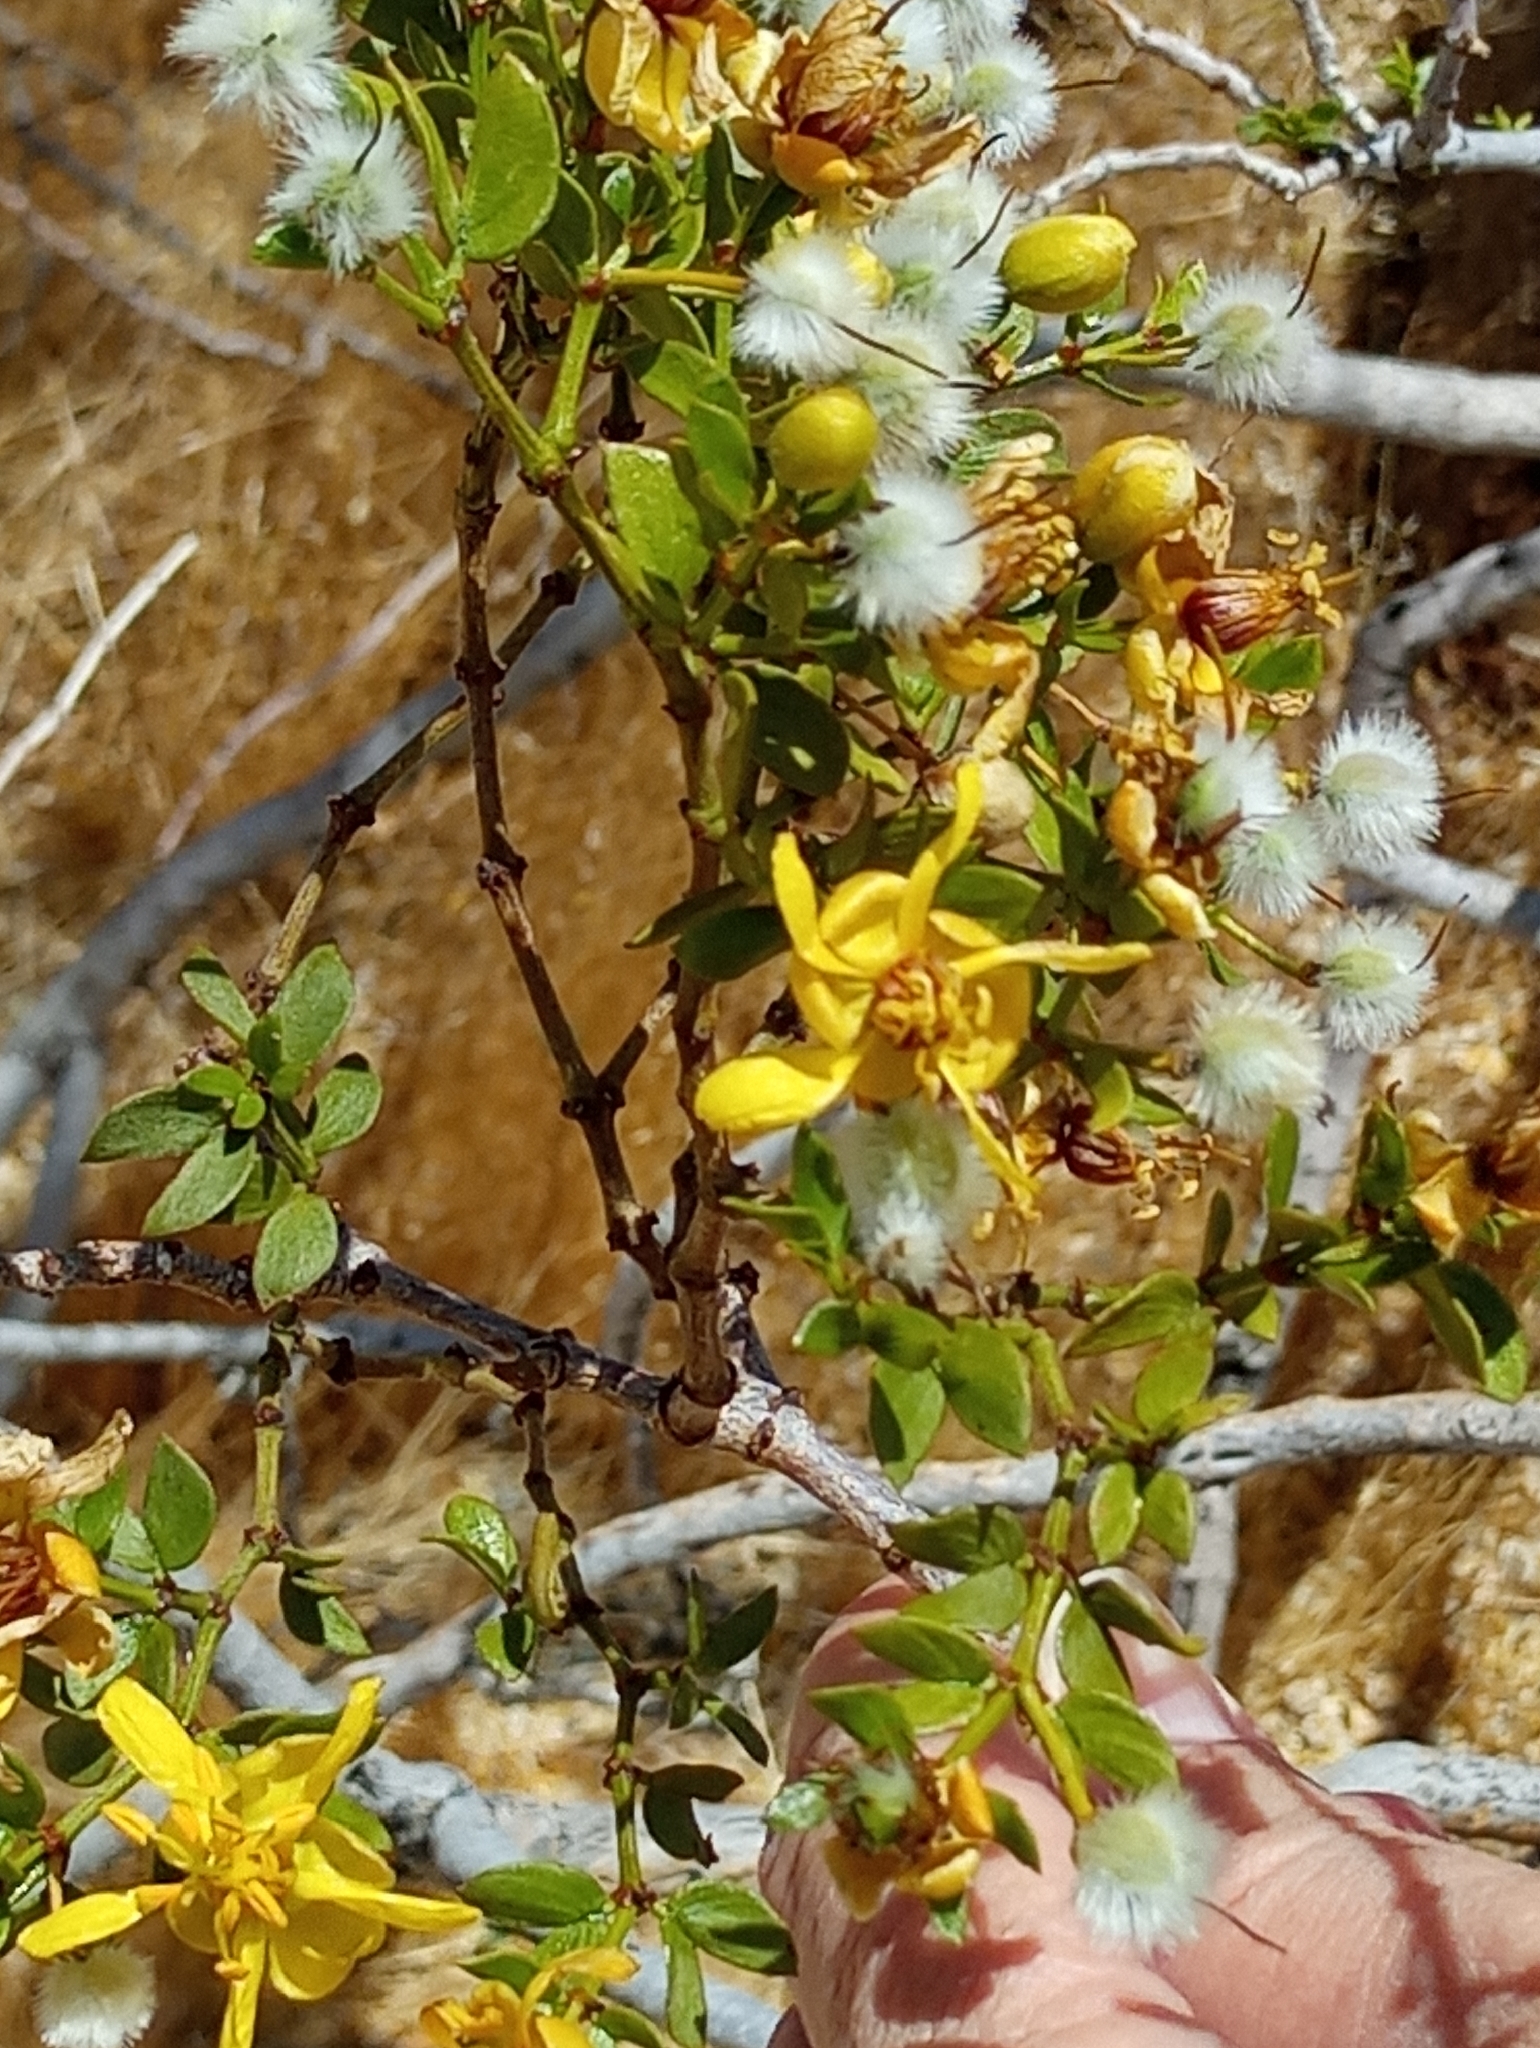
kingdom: Plantae
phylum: Tracheophyta
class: Magnoliopsida
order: Zygophyllales
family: Zygophyllaceae
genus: Larrea
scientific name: Larrea tridentata
